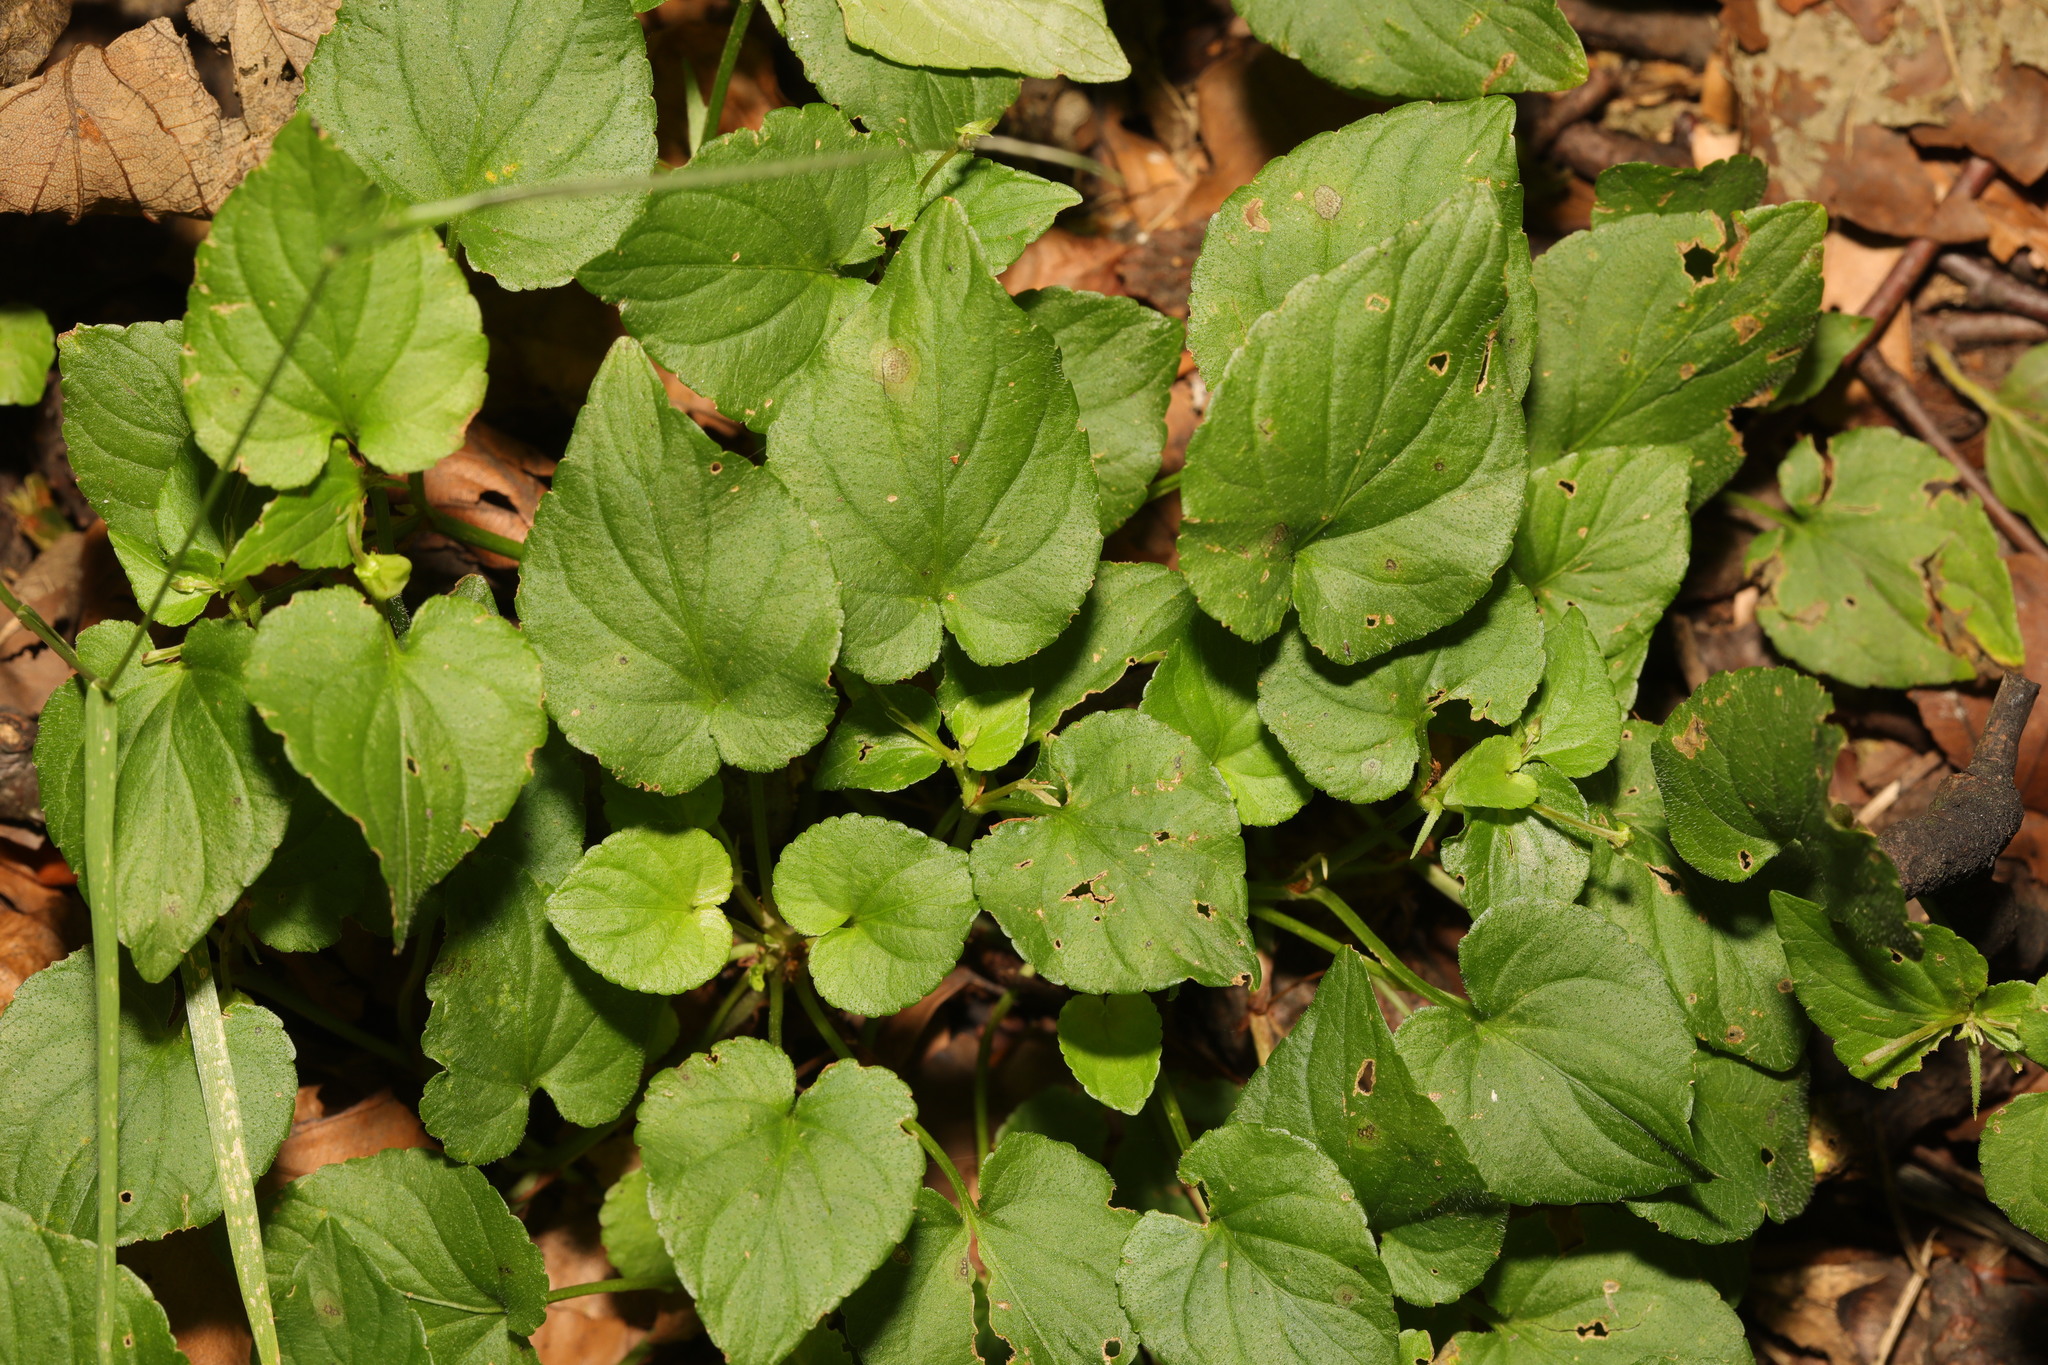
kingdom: Plantae
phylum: Tracheophyta
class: Magnoliopsida
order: Malpighiales
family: Violaceae
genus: Viola
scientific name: Viola riviniana
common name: Common dog-violet
